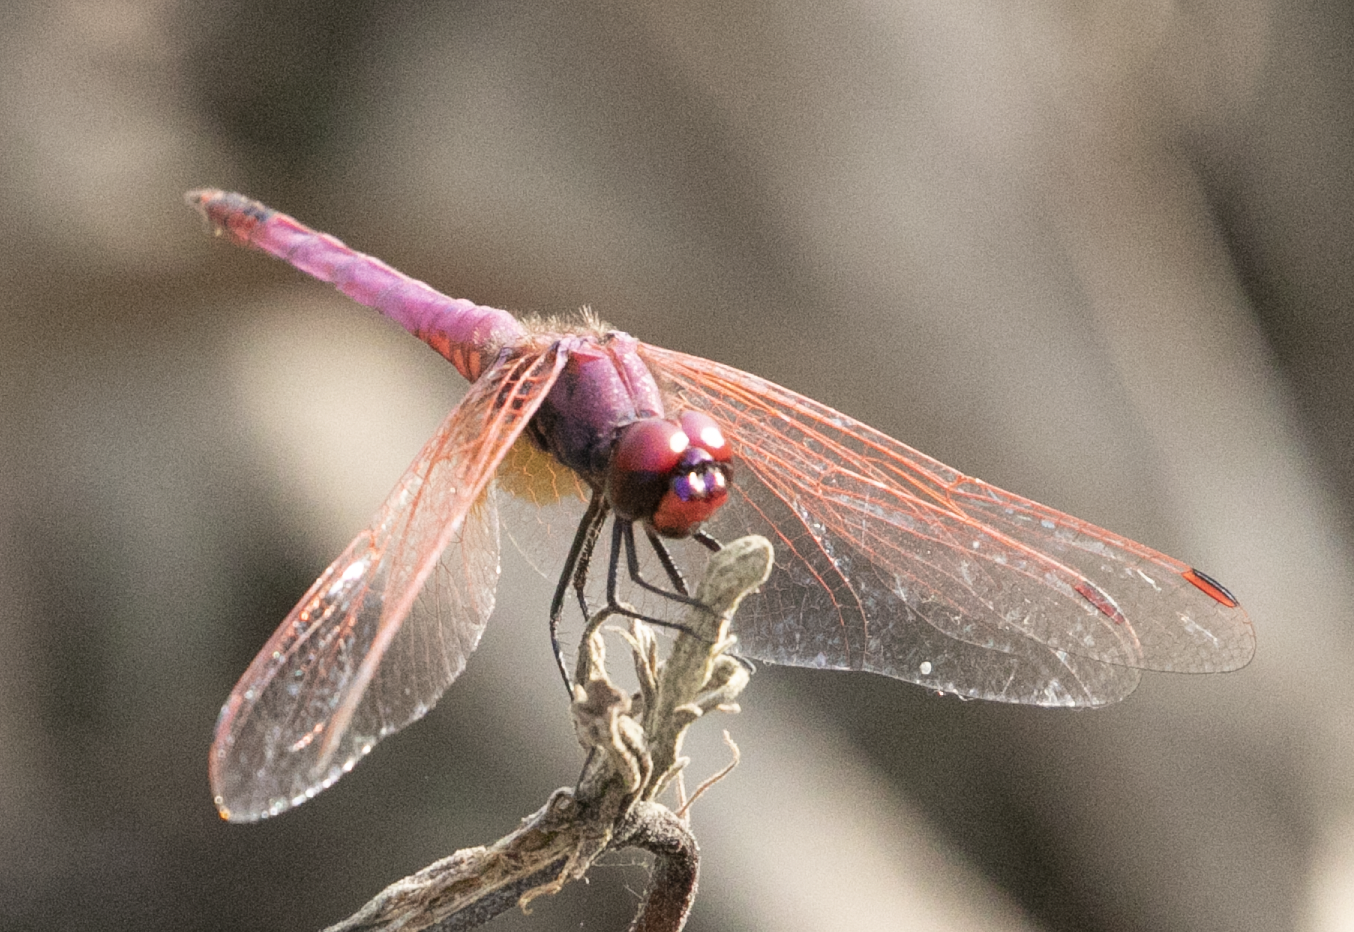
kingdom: Animalia
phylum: Arthropoda
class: Insecta
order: Odonata
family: Libellulidae
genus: Trithemis
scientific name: Trithemis annulata
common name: Violet dropwing
